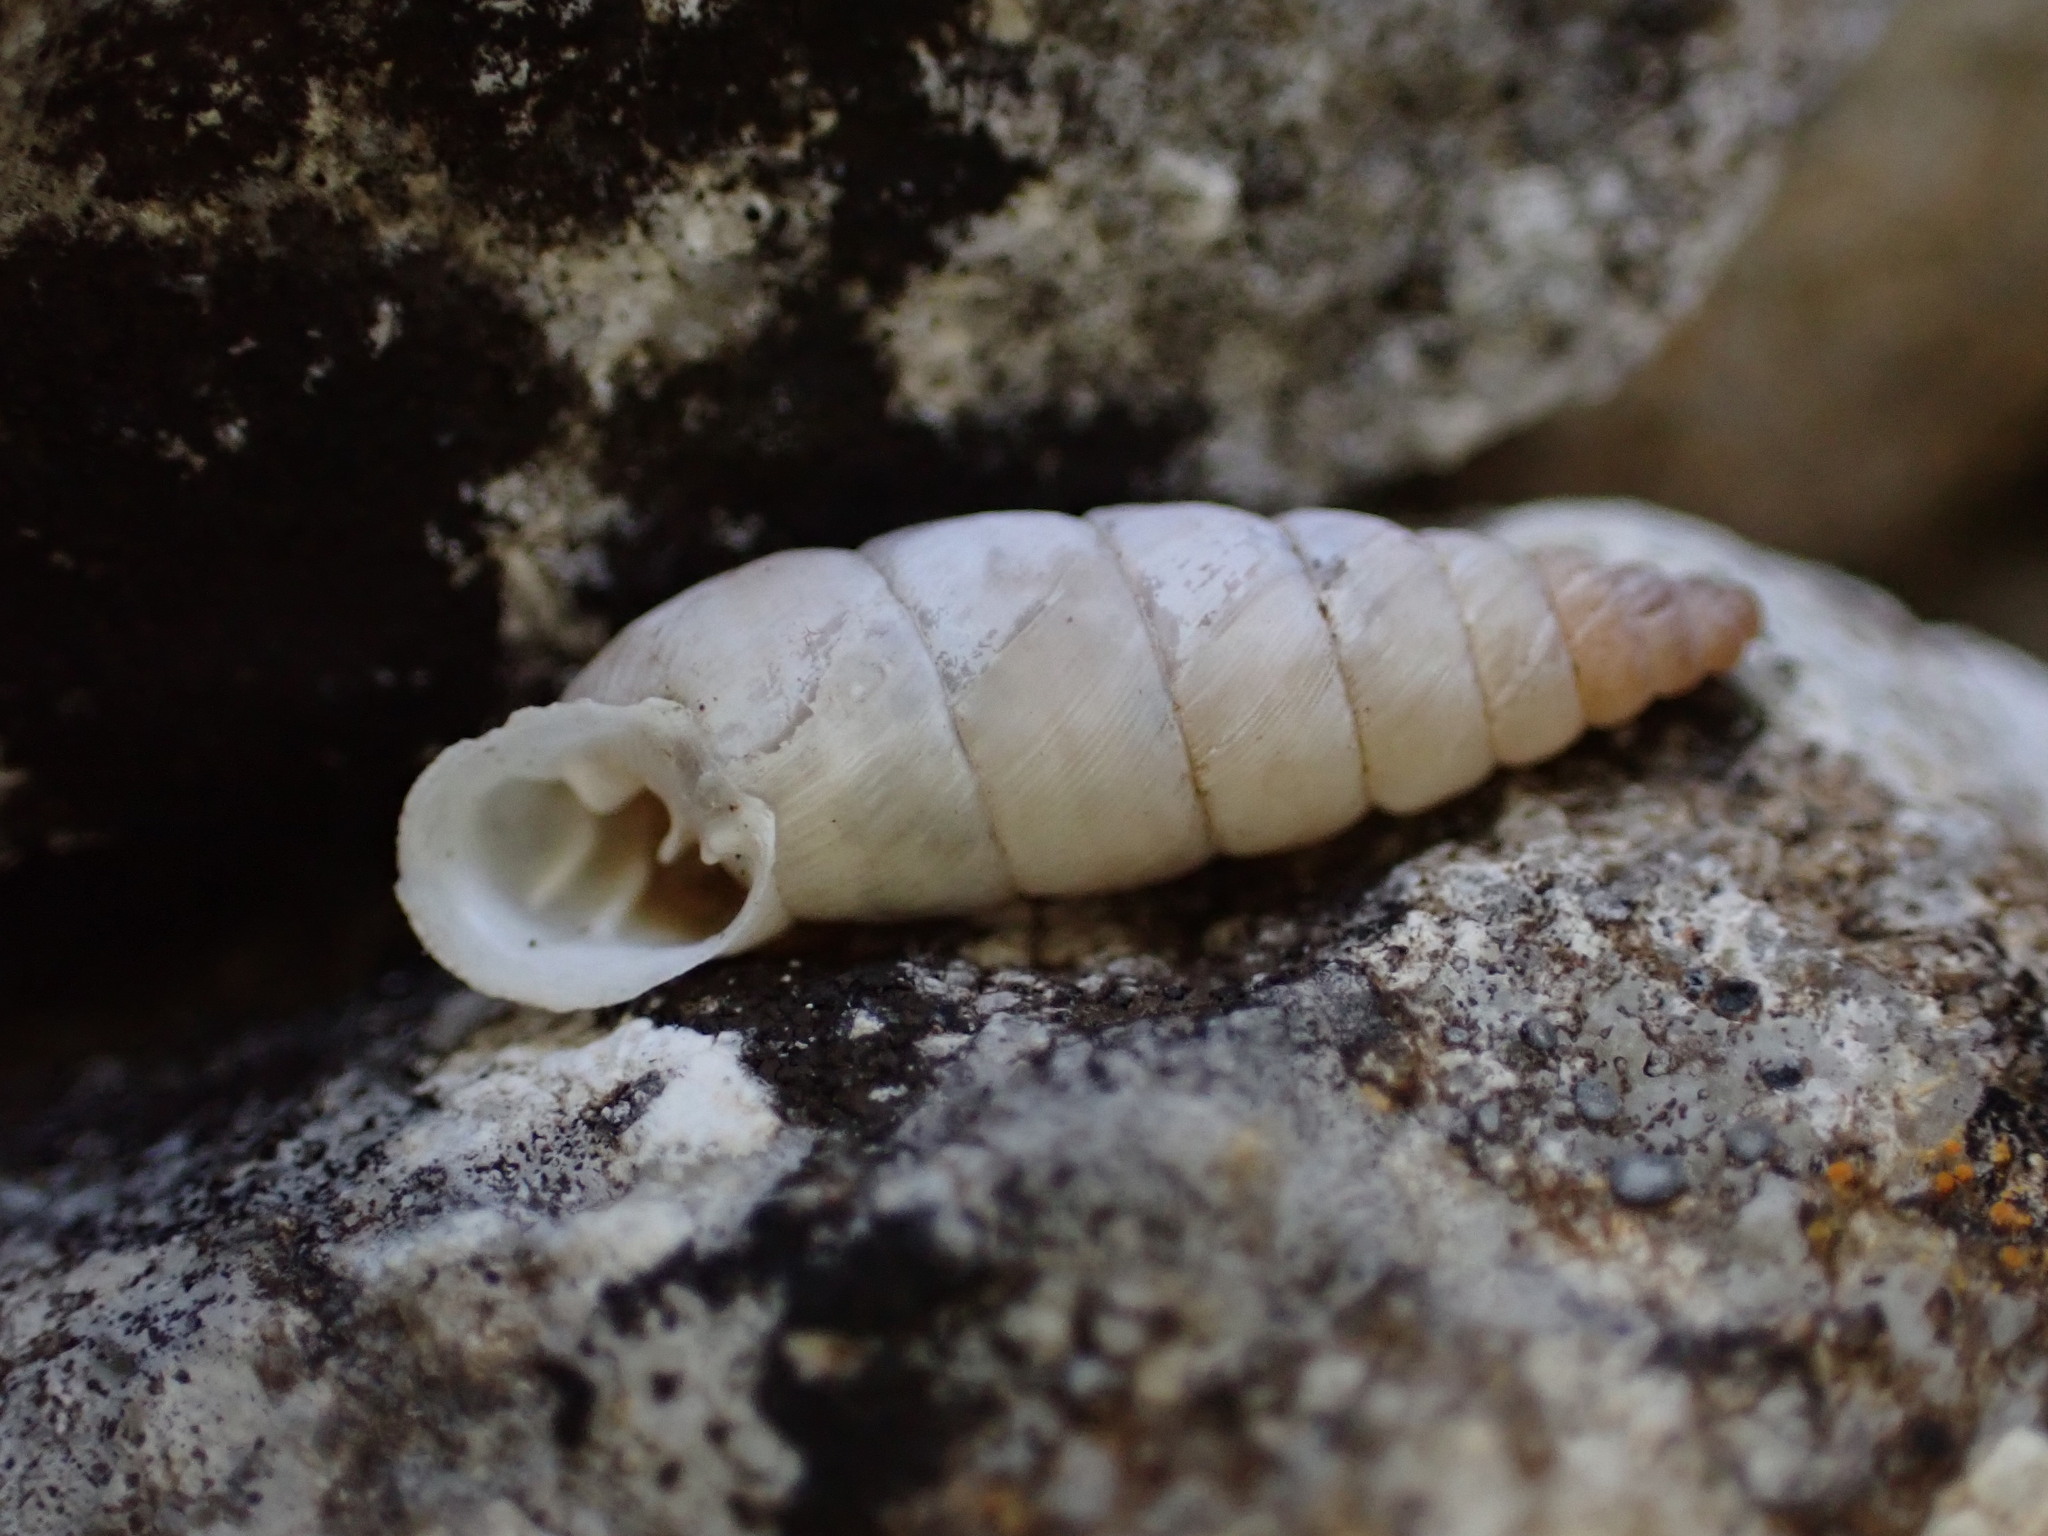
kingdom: Animalia
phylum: Mollusca
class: Gastropoda
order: Stylommatophora
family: Chondrinidae
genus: Solatopupa
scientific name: Solatopupa similis
